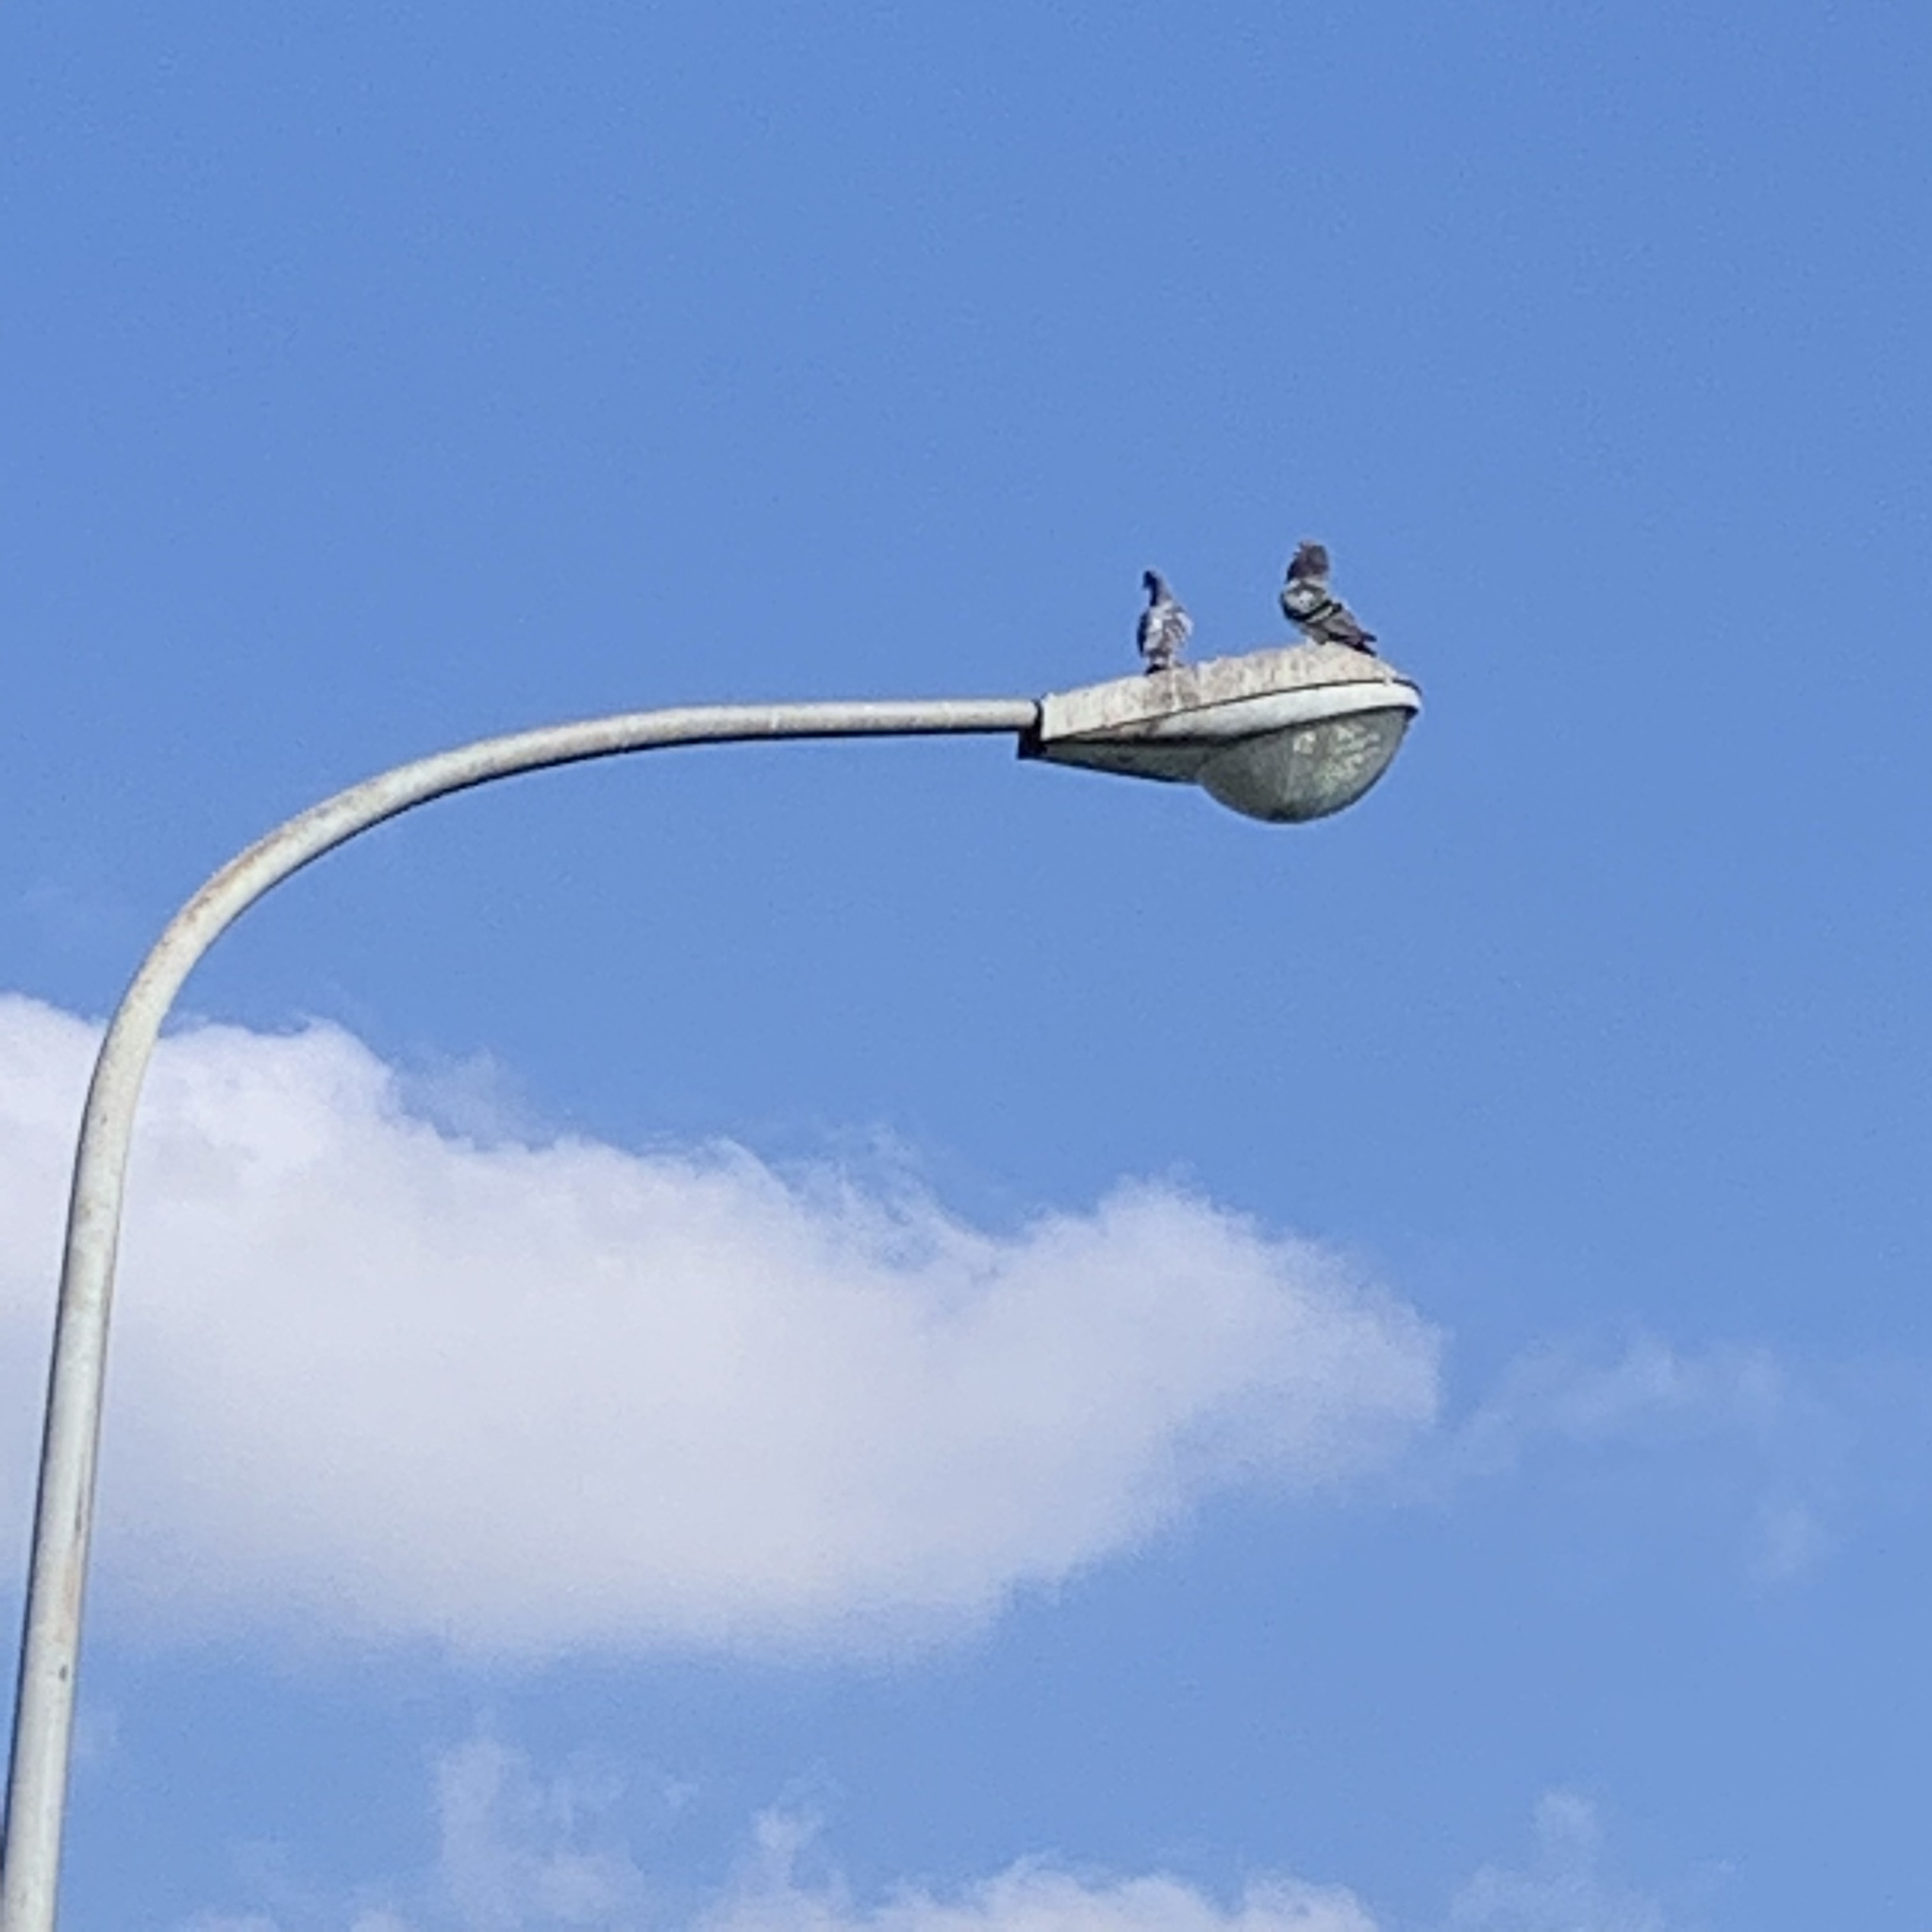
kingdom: Animalia
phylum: Chordata
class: Aves
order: Columbiformes
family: Columbidae
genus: Columba
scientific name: Columba livia
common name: Rock pigeon
